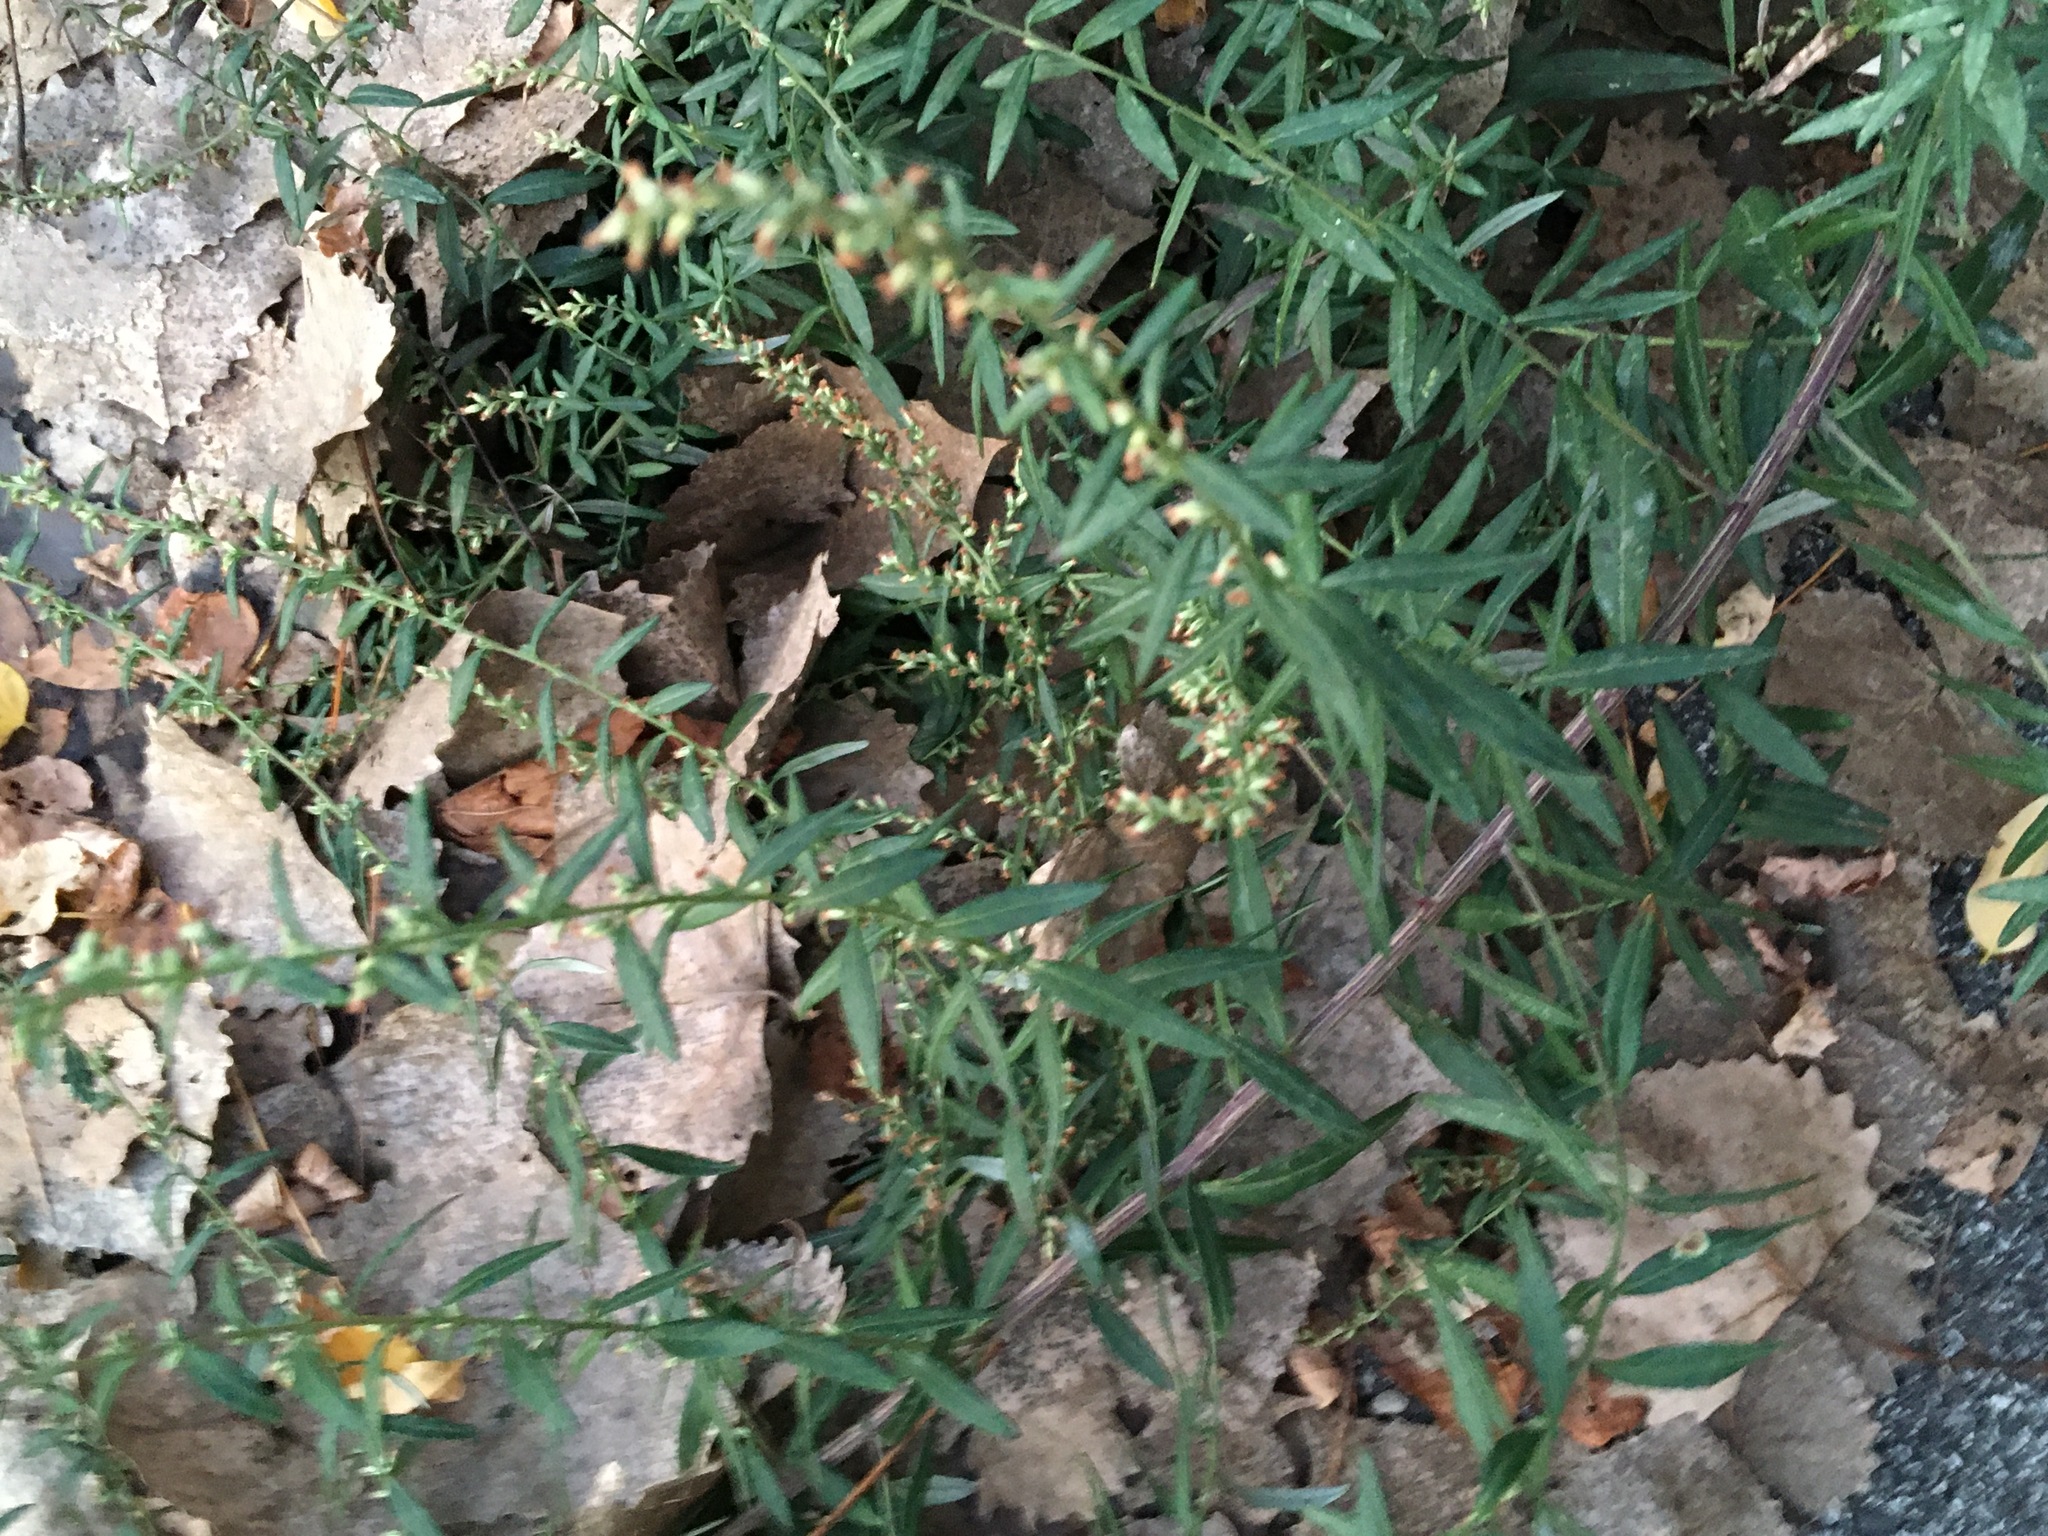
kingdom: Plantae
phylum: Tracheophyta
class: Magnoliopsida
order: Asterales
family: Asteraceae
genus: Artemisia
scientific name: Artemisia vulgaris
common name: Mugwort
